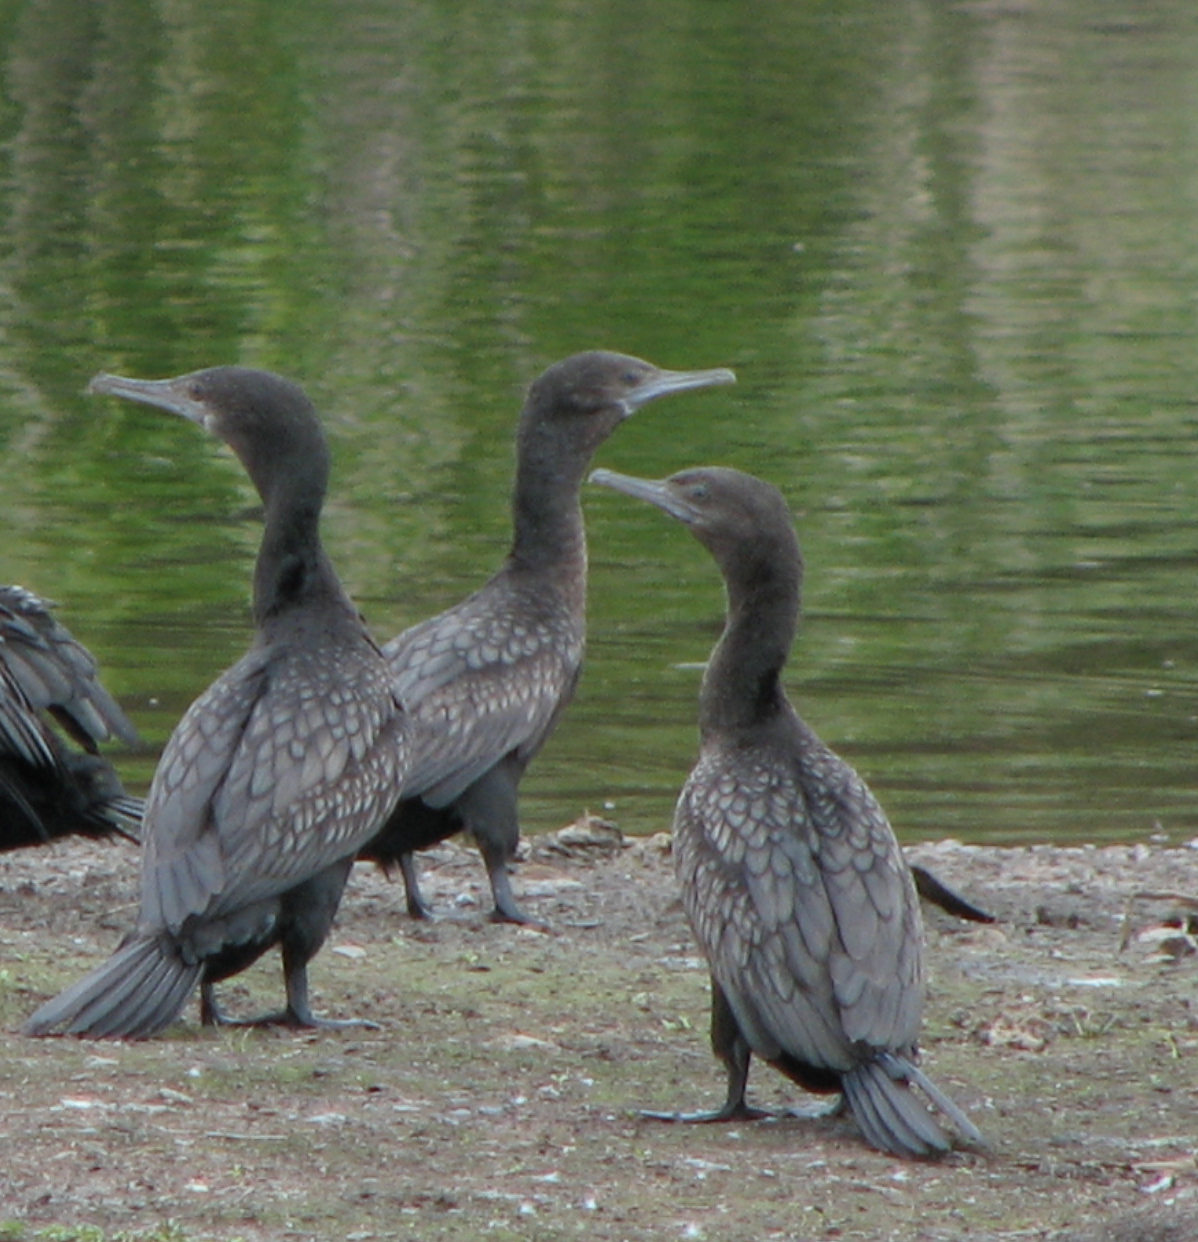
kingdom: Animalia
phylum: Chordata
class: Aves
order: Suliformes
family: Phalacrocoracidae
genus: Phalacrocorax
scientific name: Phalacrocorax sulcirostris
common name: Little black cormorant
